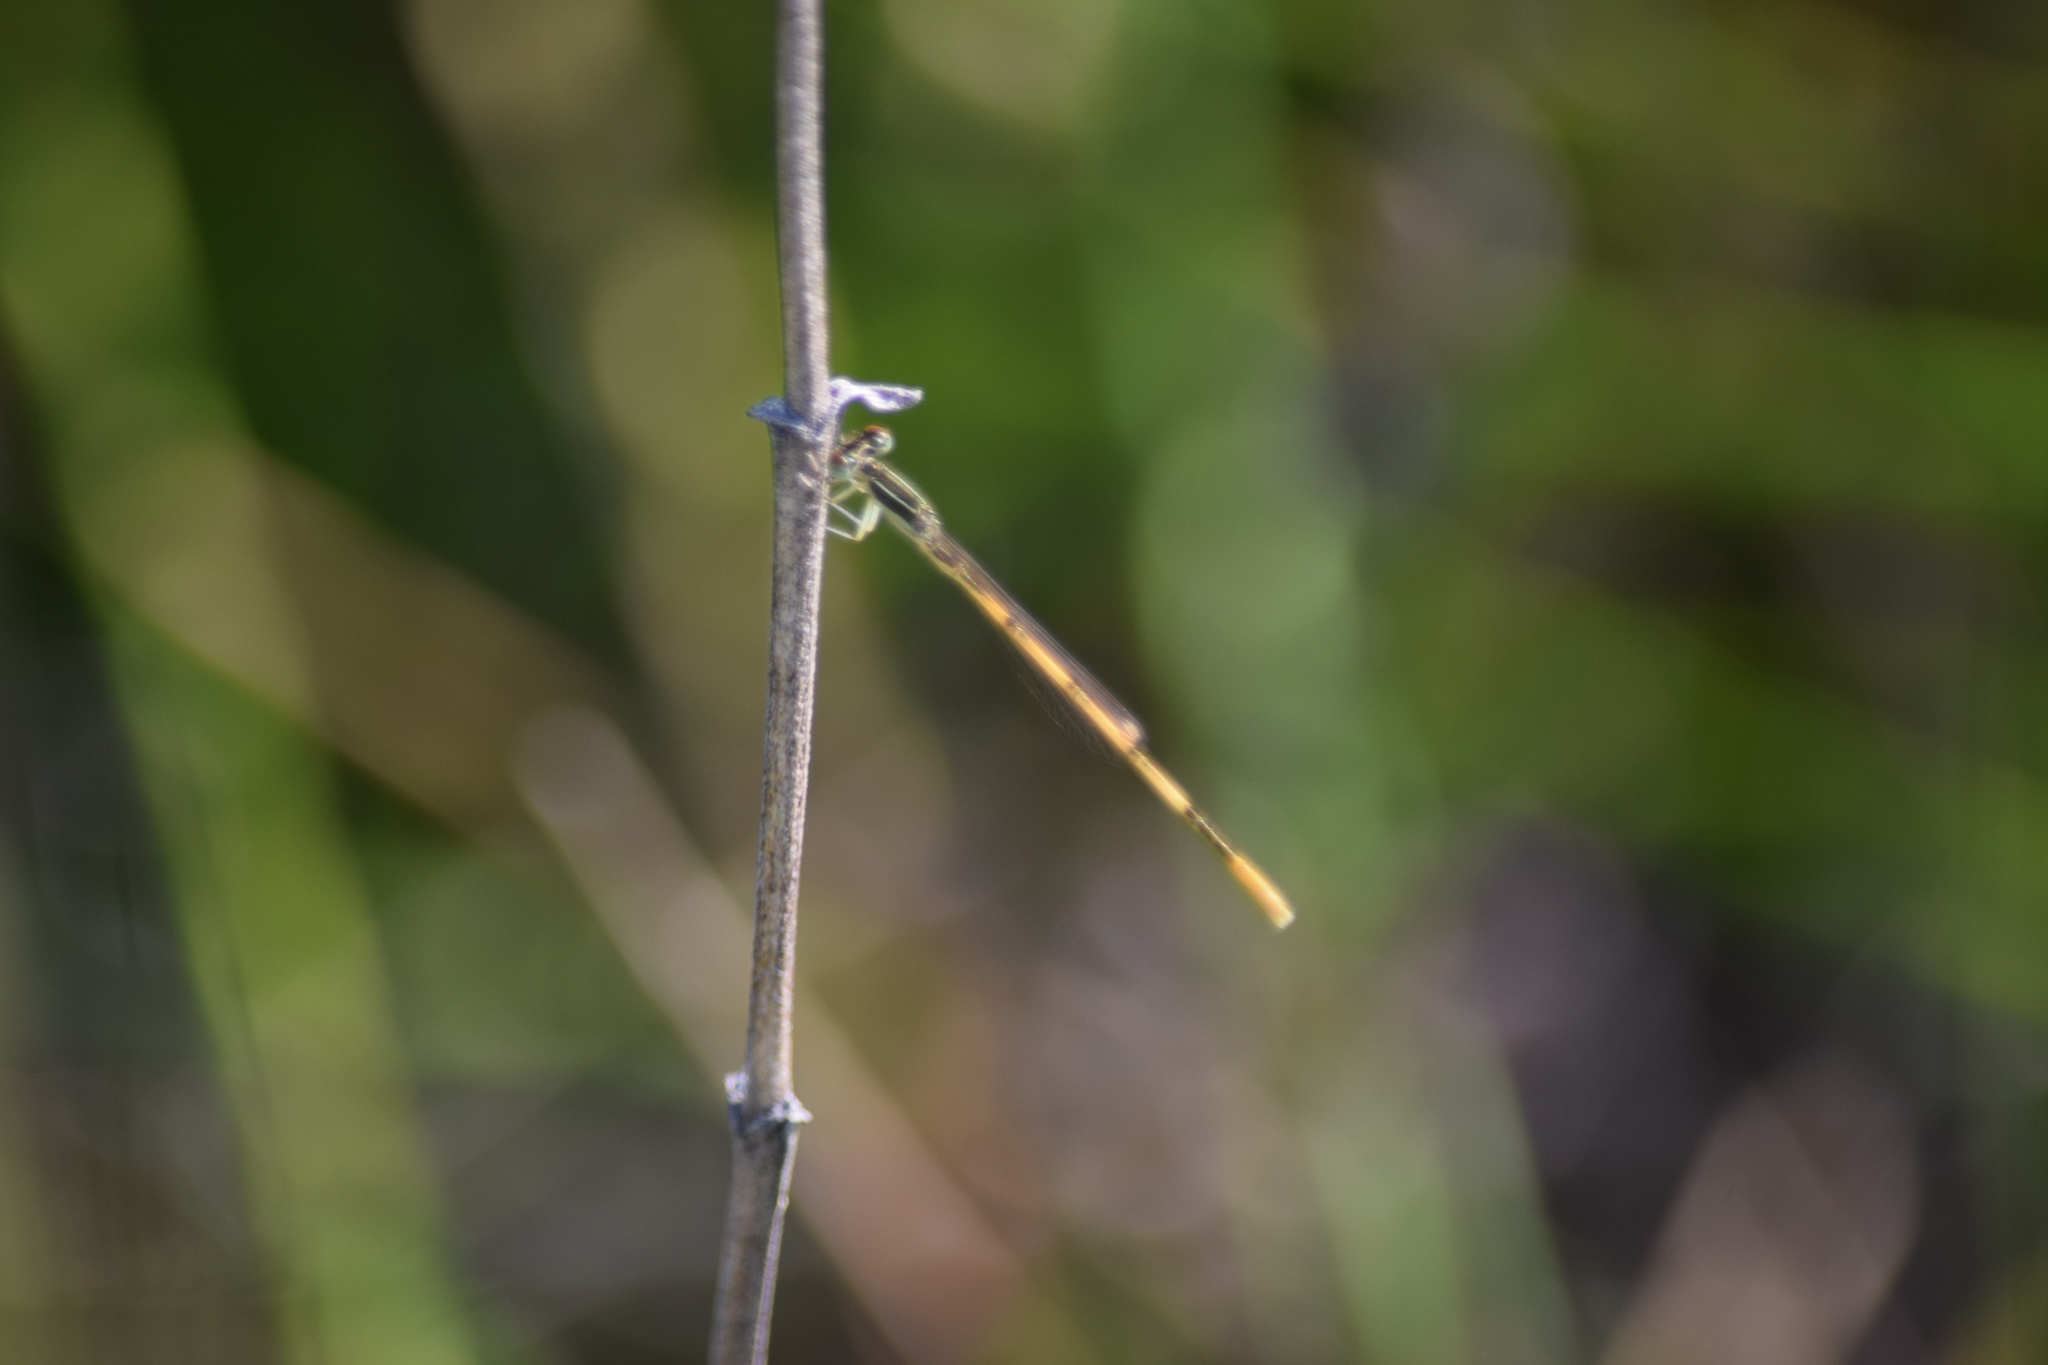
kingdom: Animalia
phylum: Arthropoda
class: Insecta
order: Odonata
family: Coenagrionidae
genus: Ischnura
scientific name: Ischnura hastata
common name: Citrine forktail
